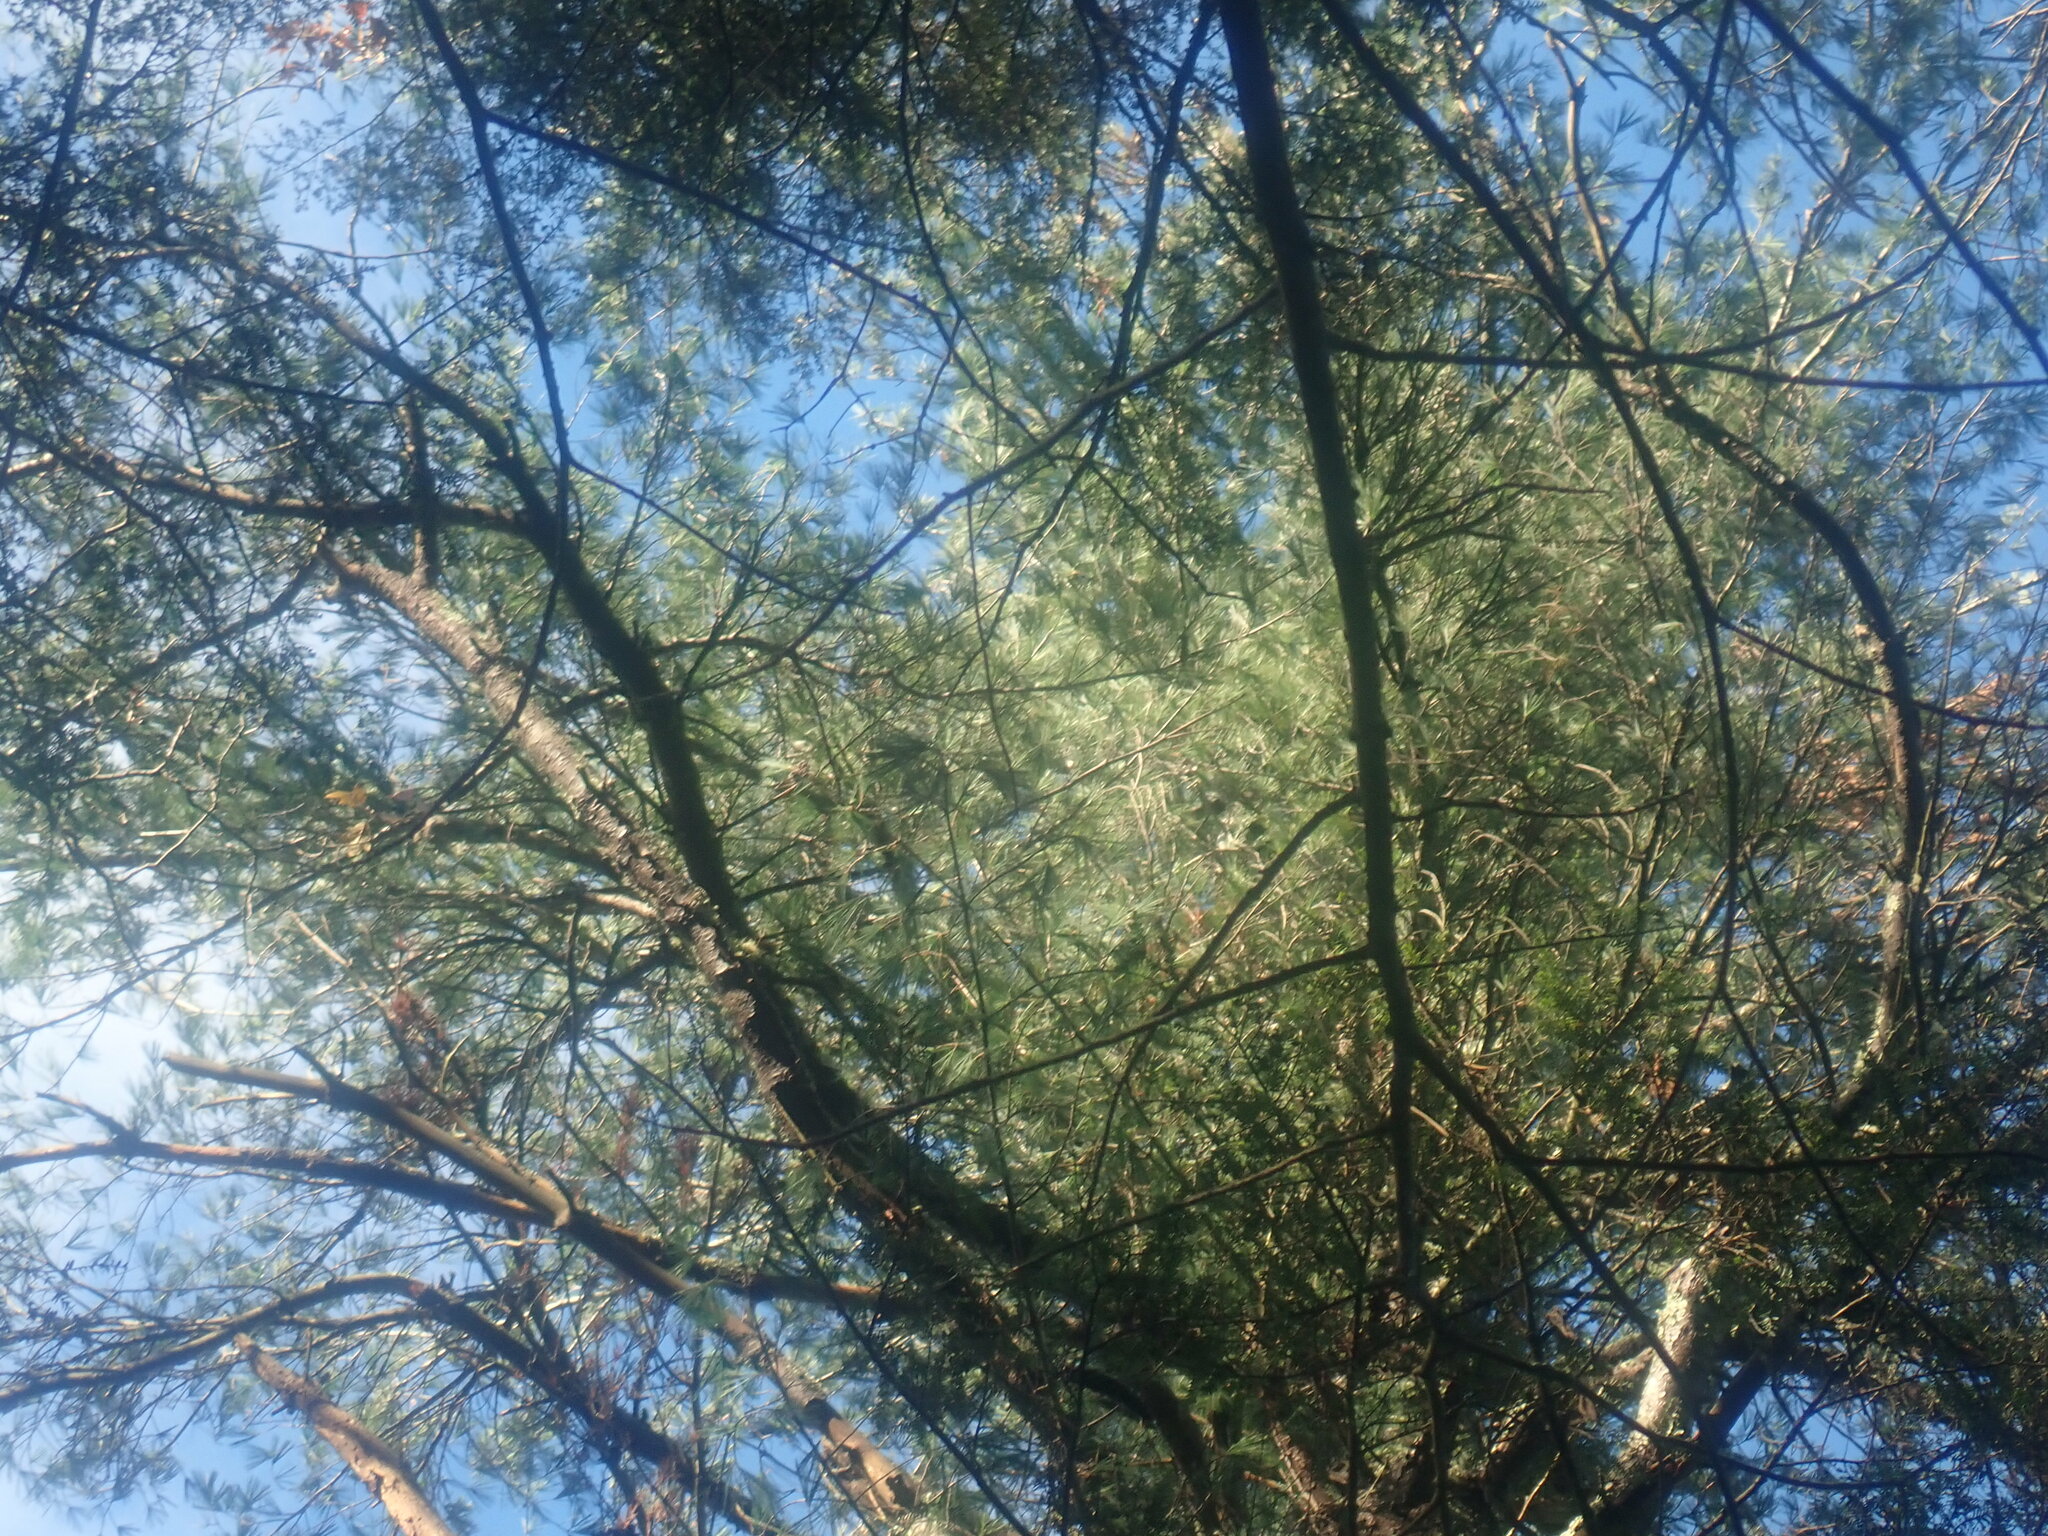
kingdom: Plantae
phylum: Tracheophyta
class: Pinopsida
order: Pinales
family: Pinaceae
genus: Pinus
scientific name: Pinus strobus
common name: Weymouth pine
